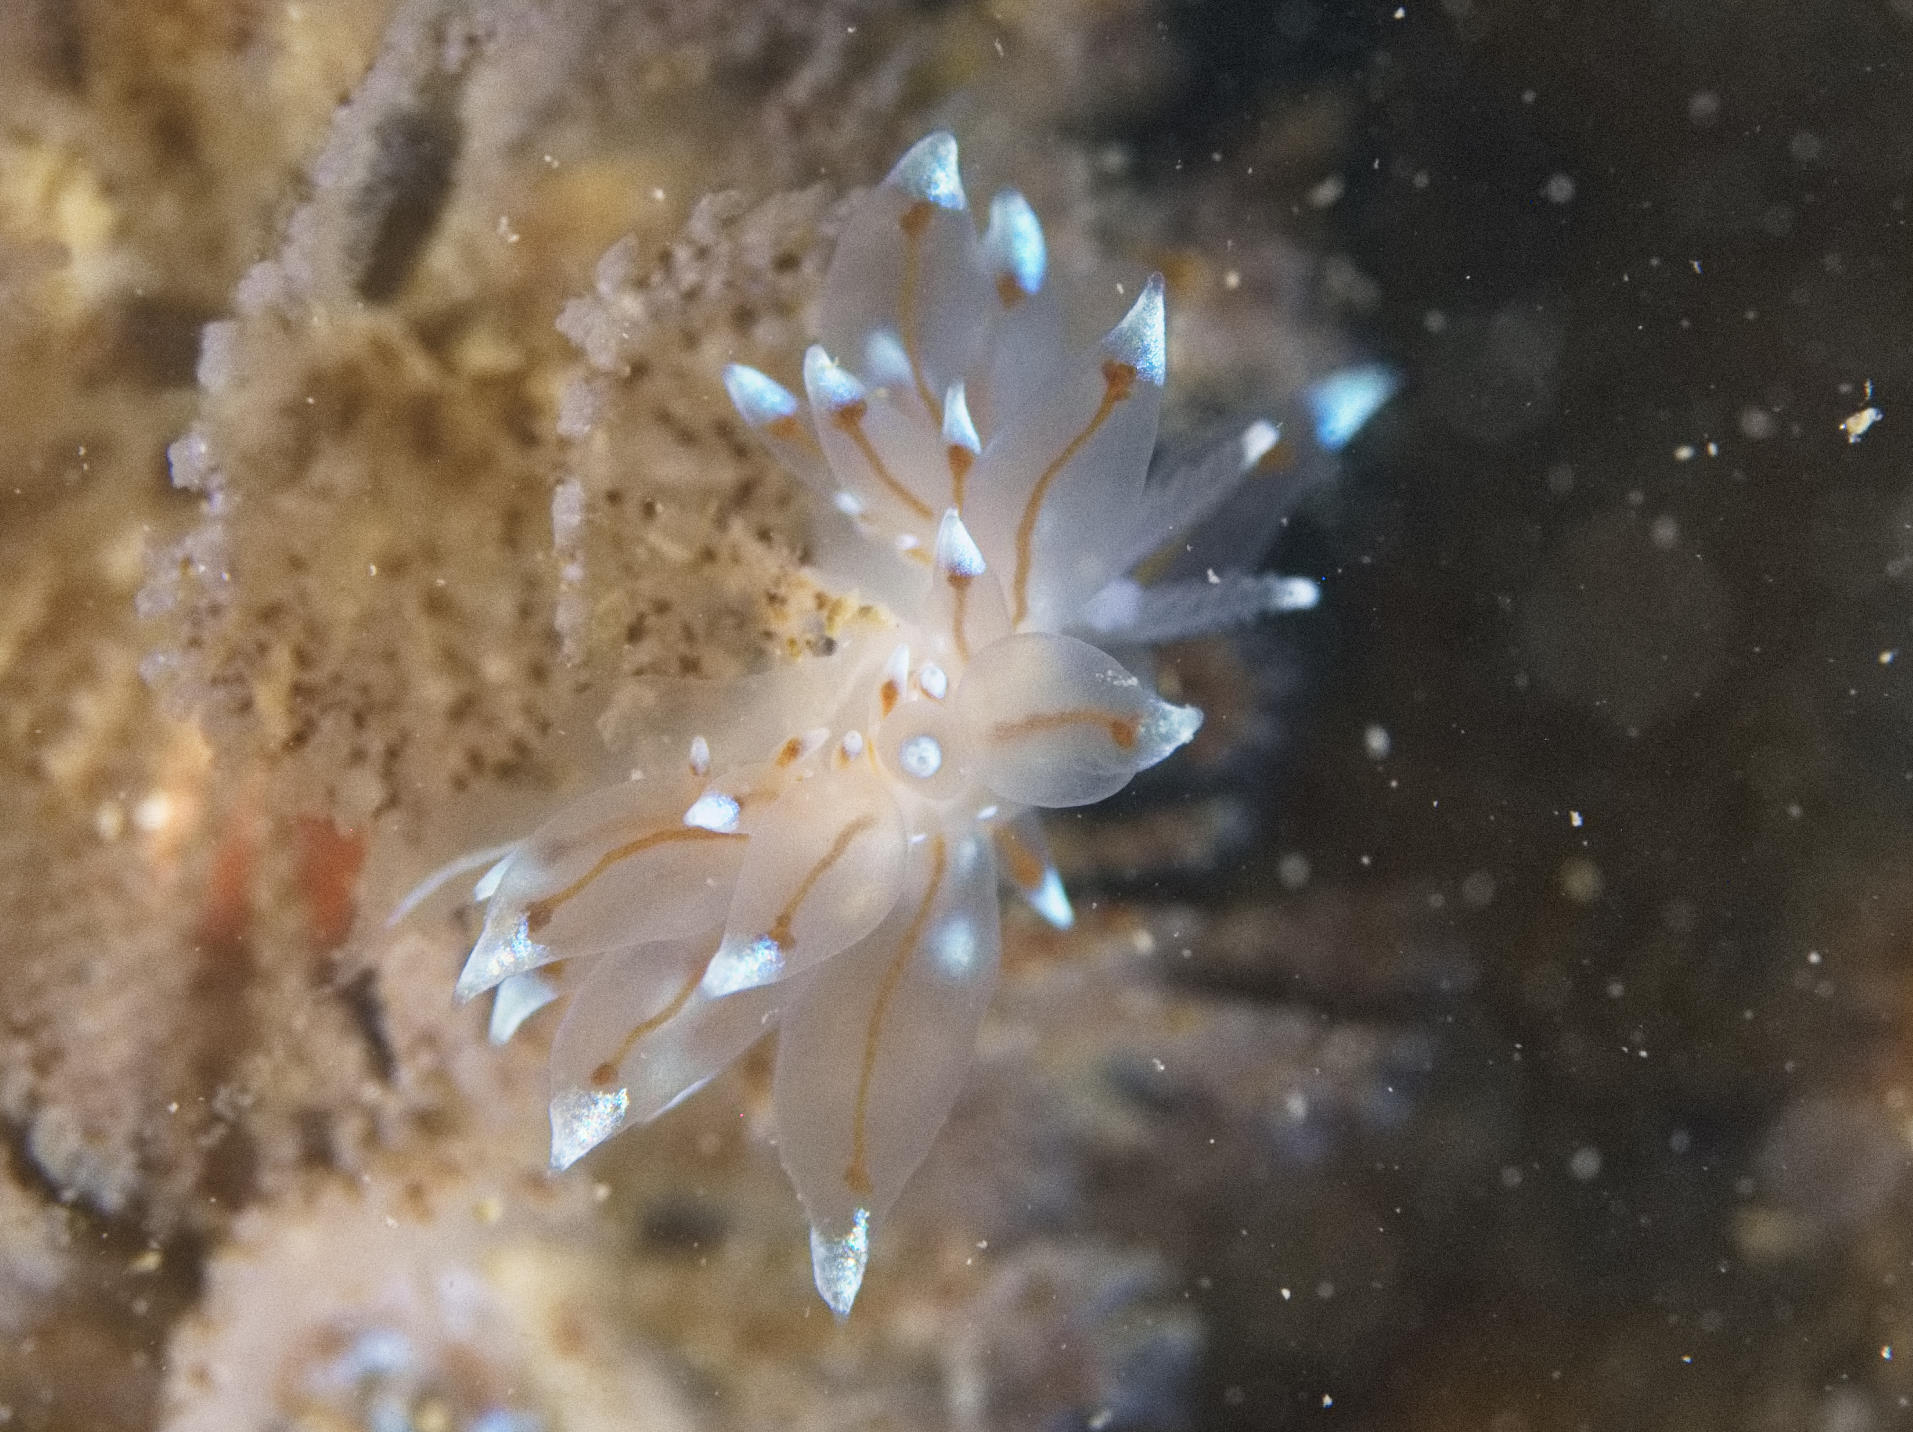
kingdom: Animalia
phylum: Mollusca
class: Gastropoda
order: Nudibranchia
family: Janolidae
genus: Antiopella
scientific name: Antiopella cristata
